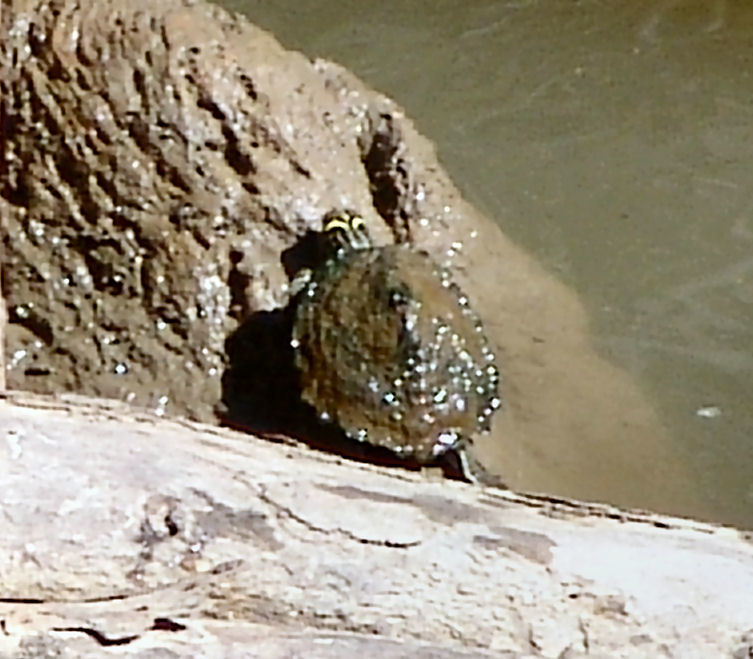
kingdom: Animalia
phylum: Chordata
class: Testudines
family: Emydidae
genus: Graptemys
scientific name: Graptemys ouachitensis
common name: Ouachita map turtle
